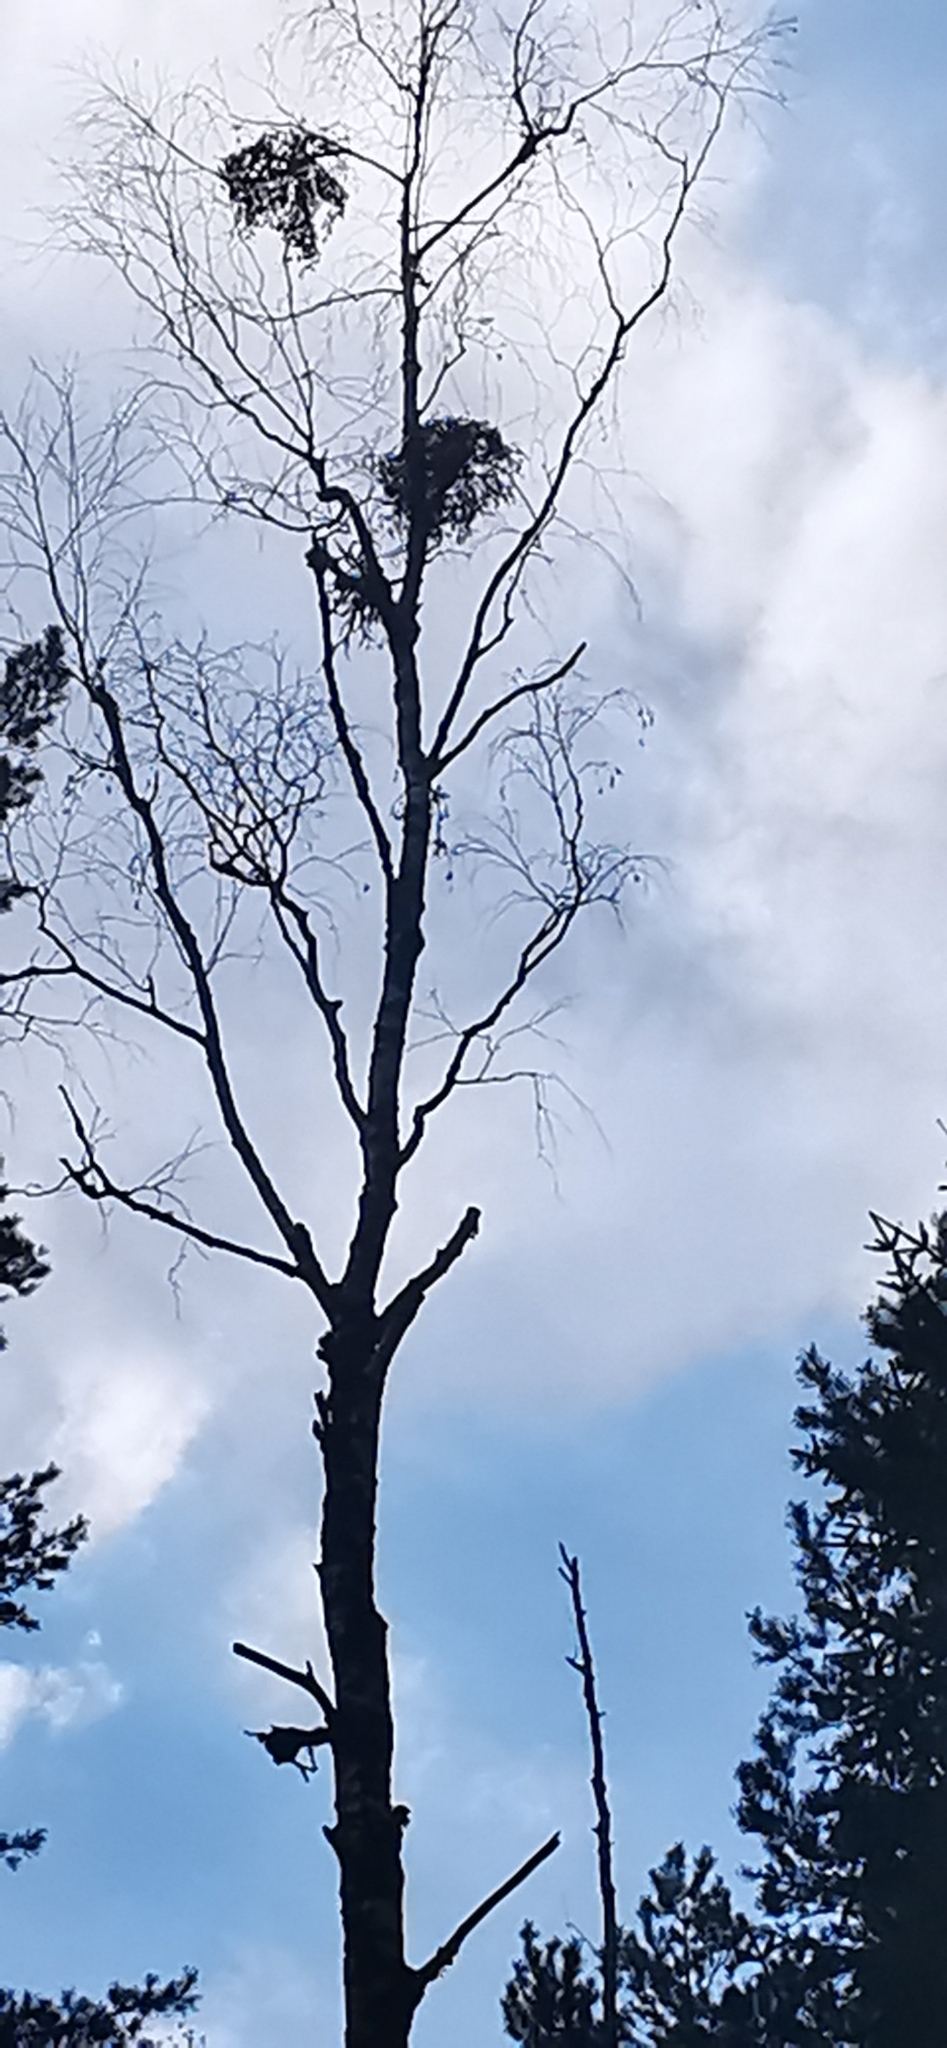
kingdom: Plantae
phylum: Tracheophyta
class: Magnoliopsida
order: Santalales
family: Viscaceae
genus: Viscum
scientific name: Viscum album
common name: Mistletoe
